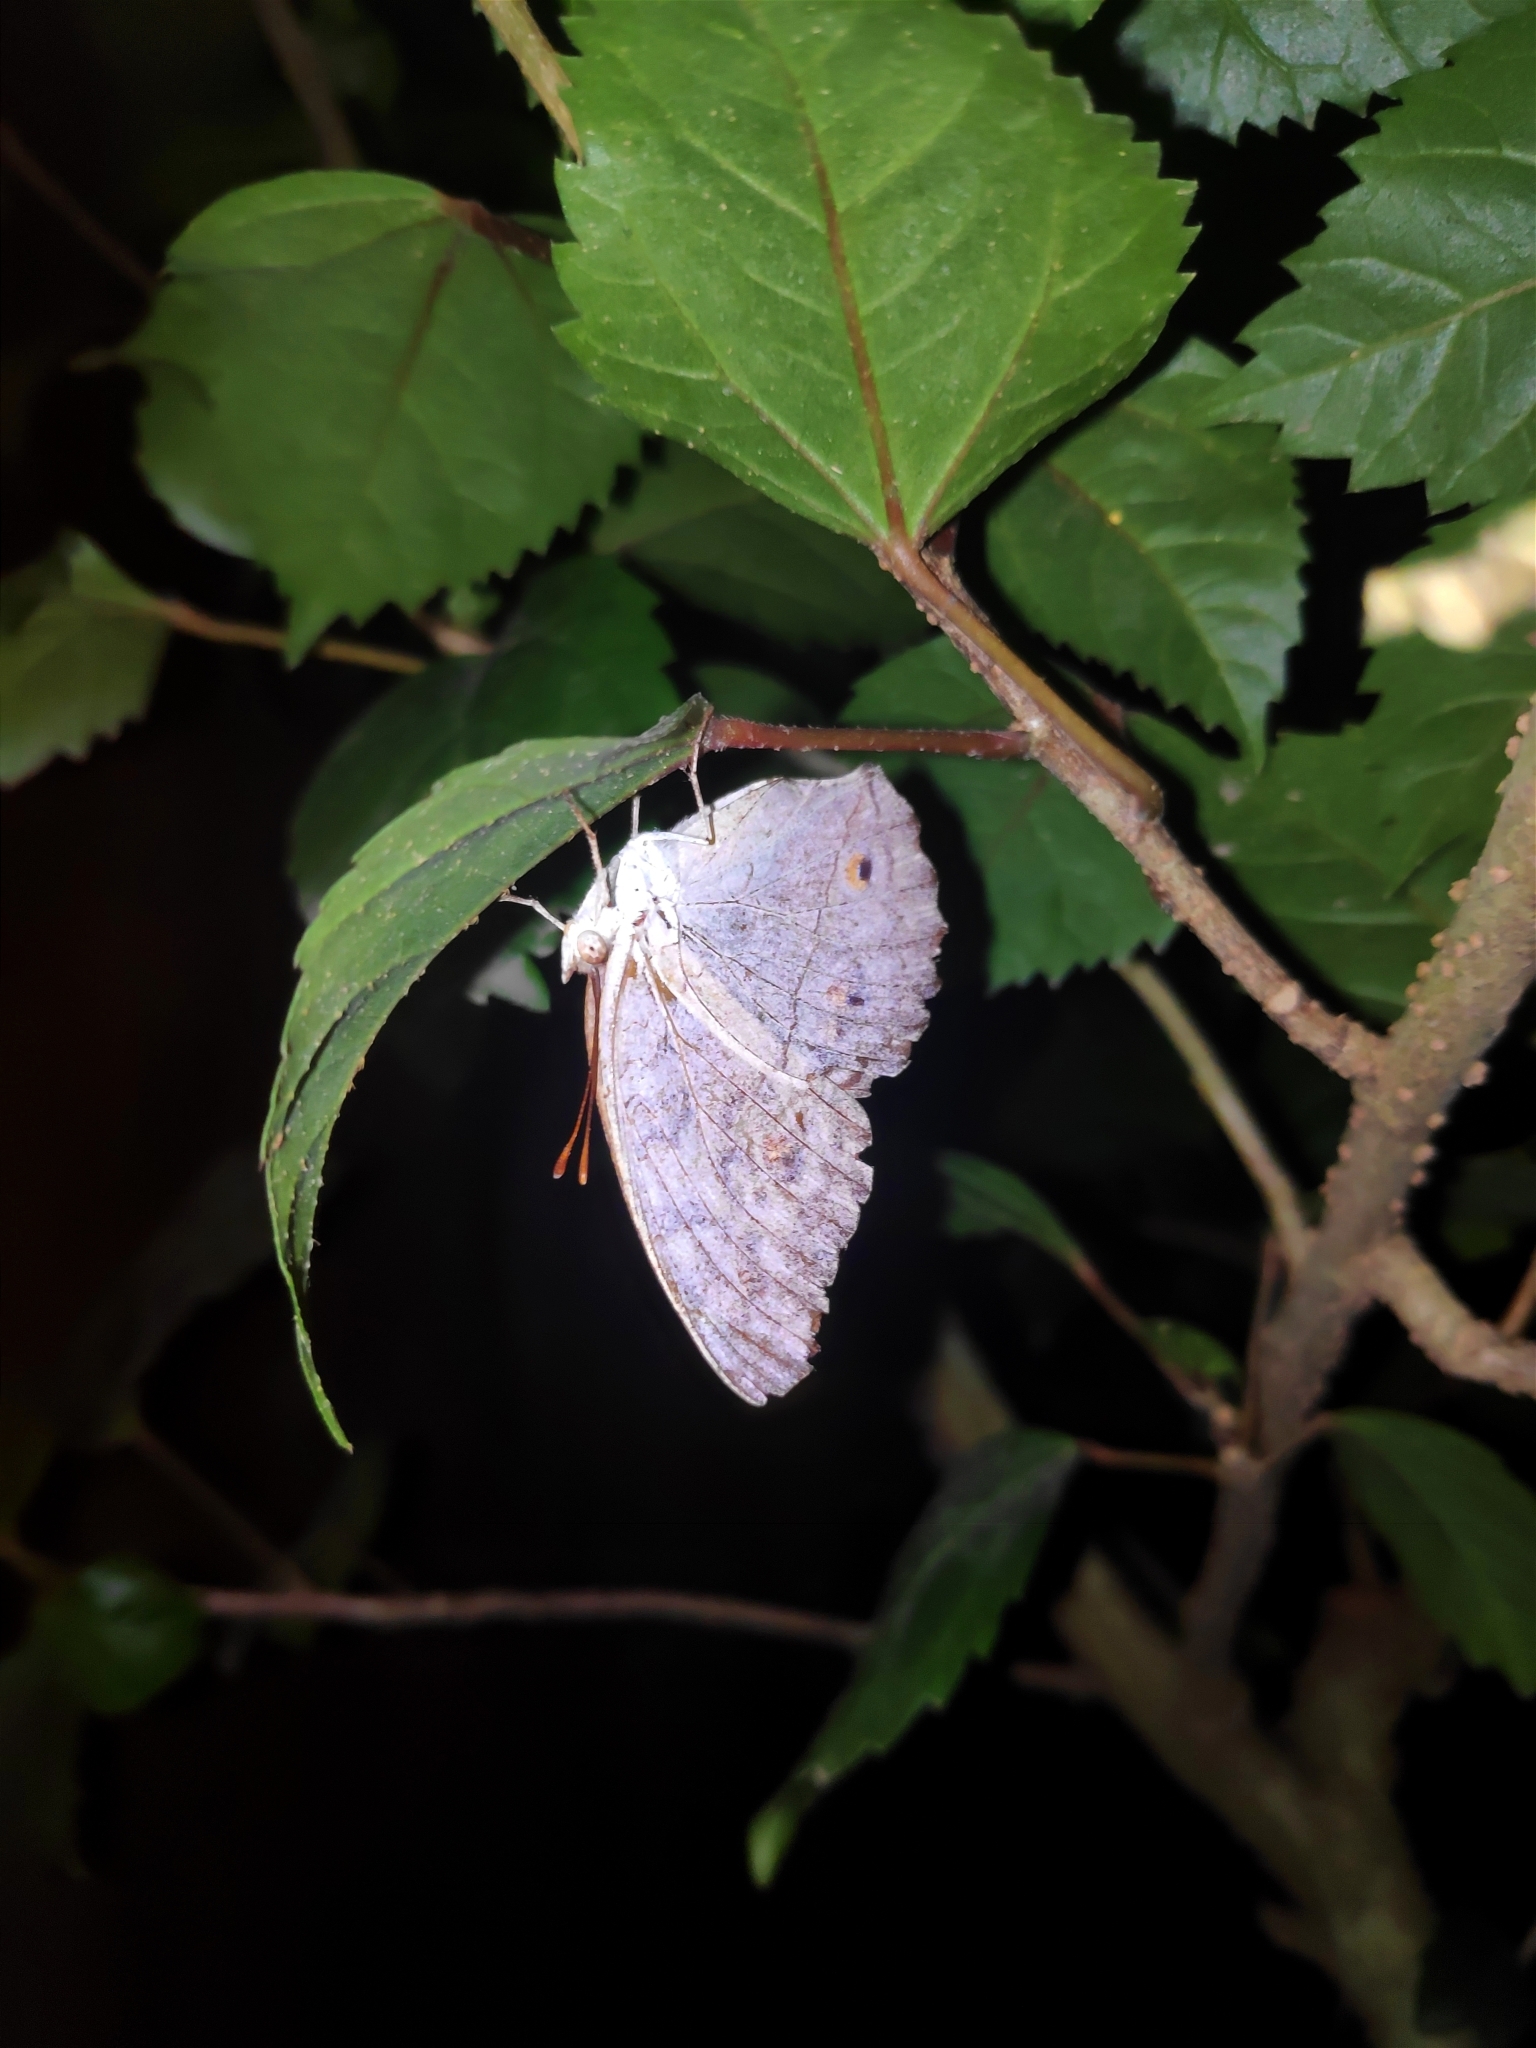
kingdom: Animalia
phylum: Arthropoda
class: Insecta
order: Lepidoptera
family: Nymphalidae
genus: Junonia
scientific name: Junonia atlites
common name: Grey pansy
